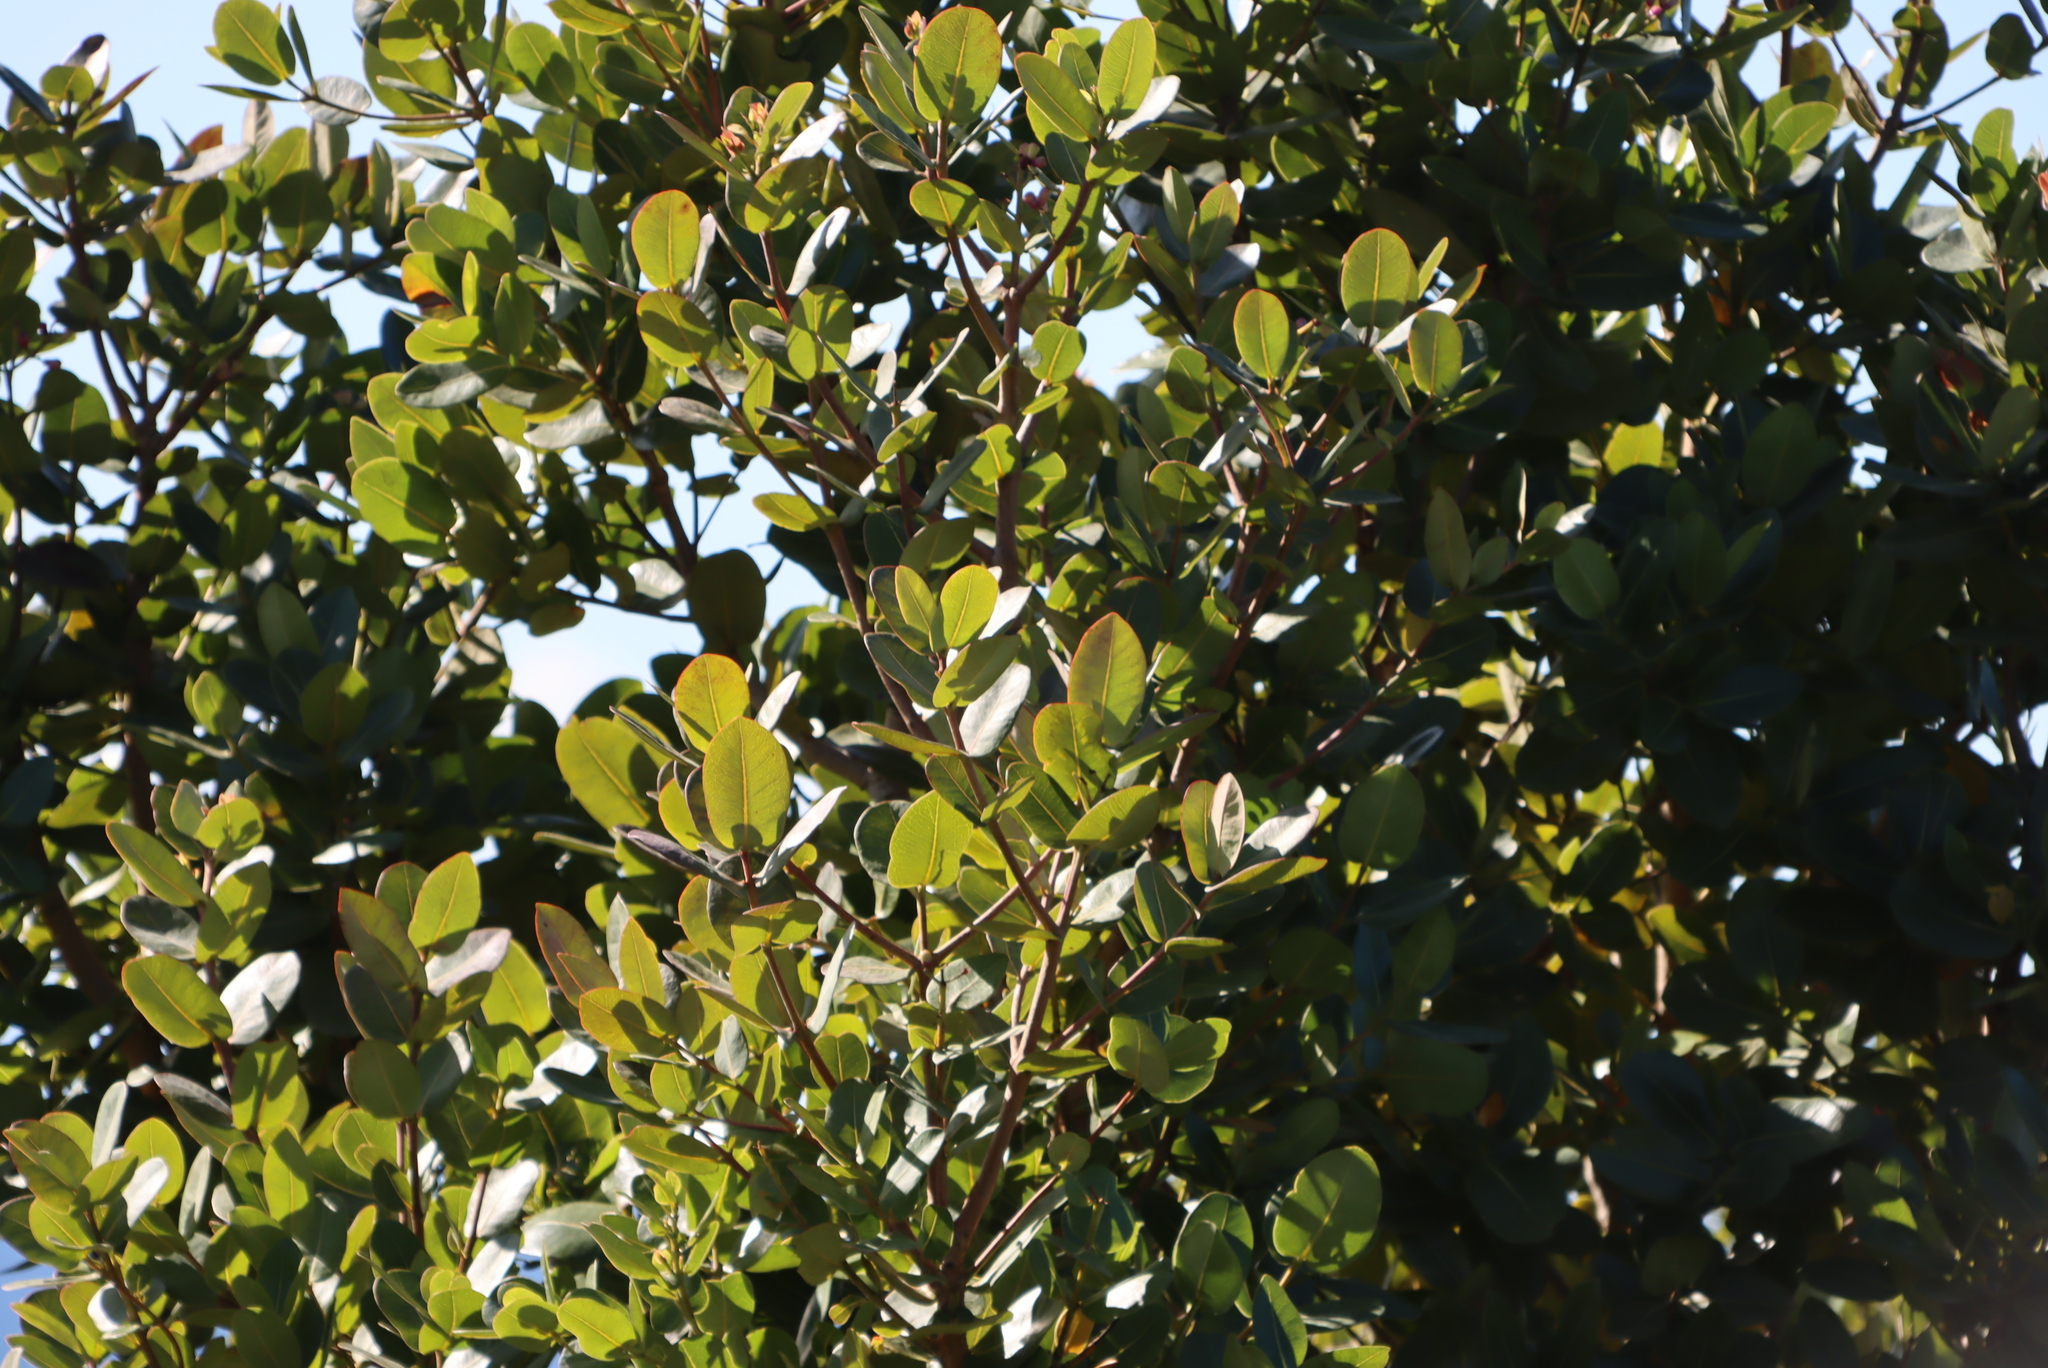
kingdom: Plantae
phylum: Tracheophyta
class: Magnoliopsida
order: Myrtales
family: Myrtaceae
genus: Syzygium
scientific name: Syzygium cordatum
